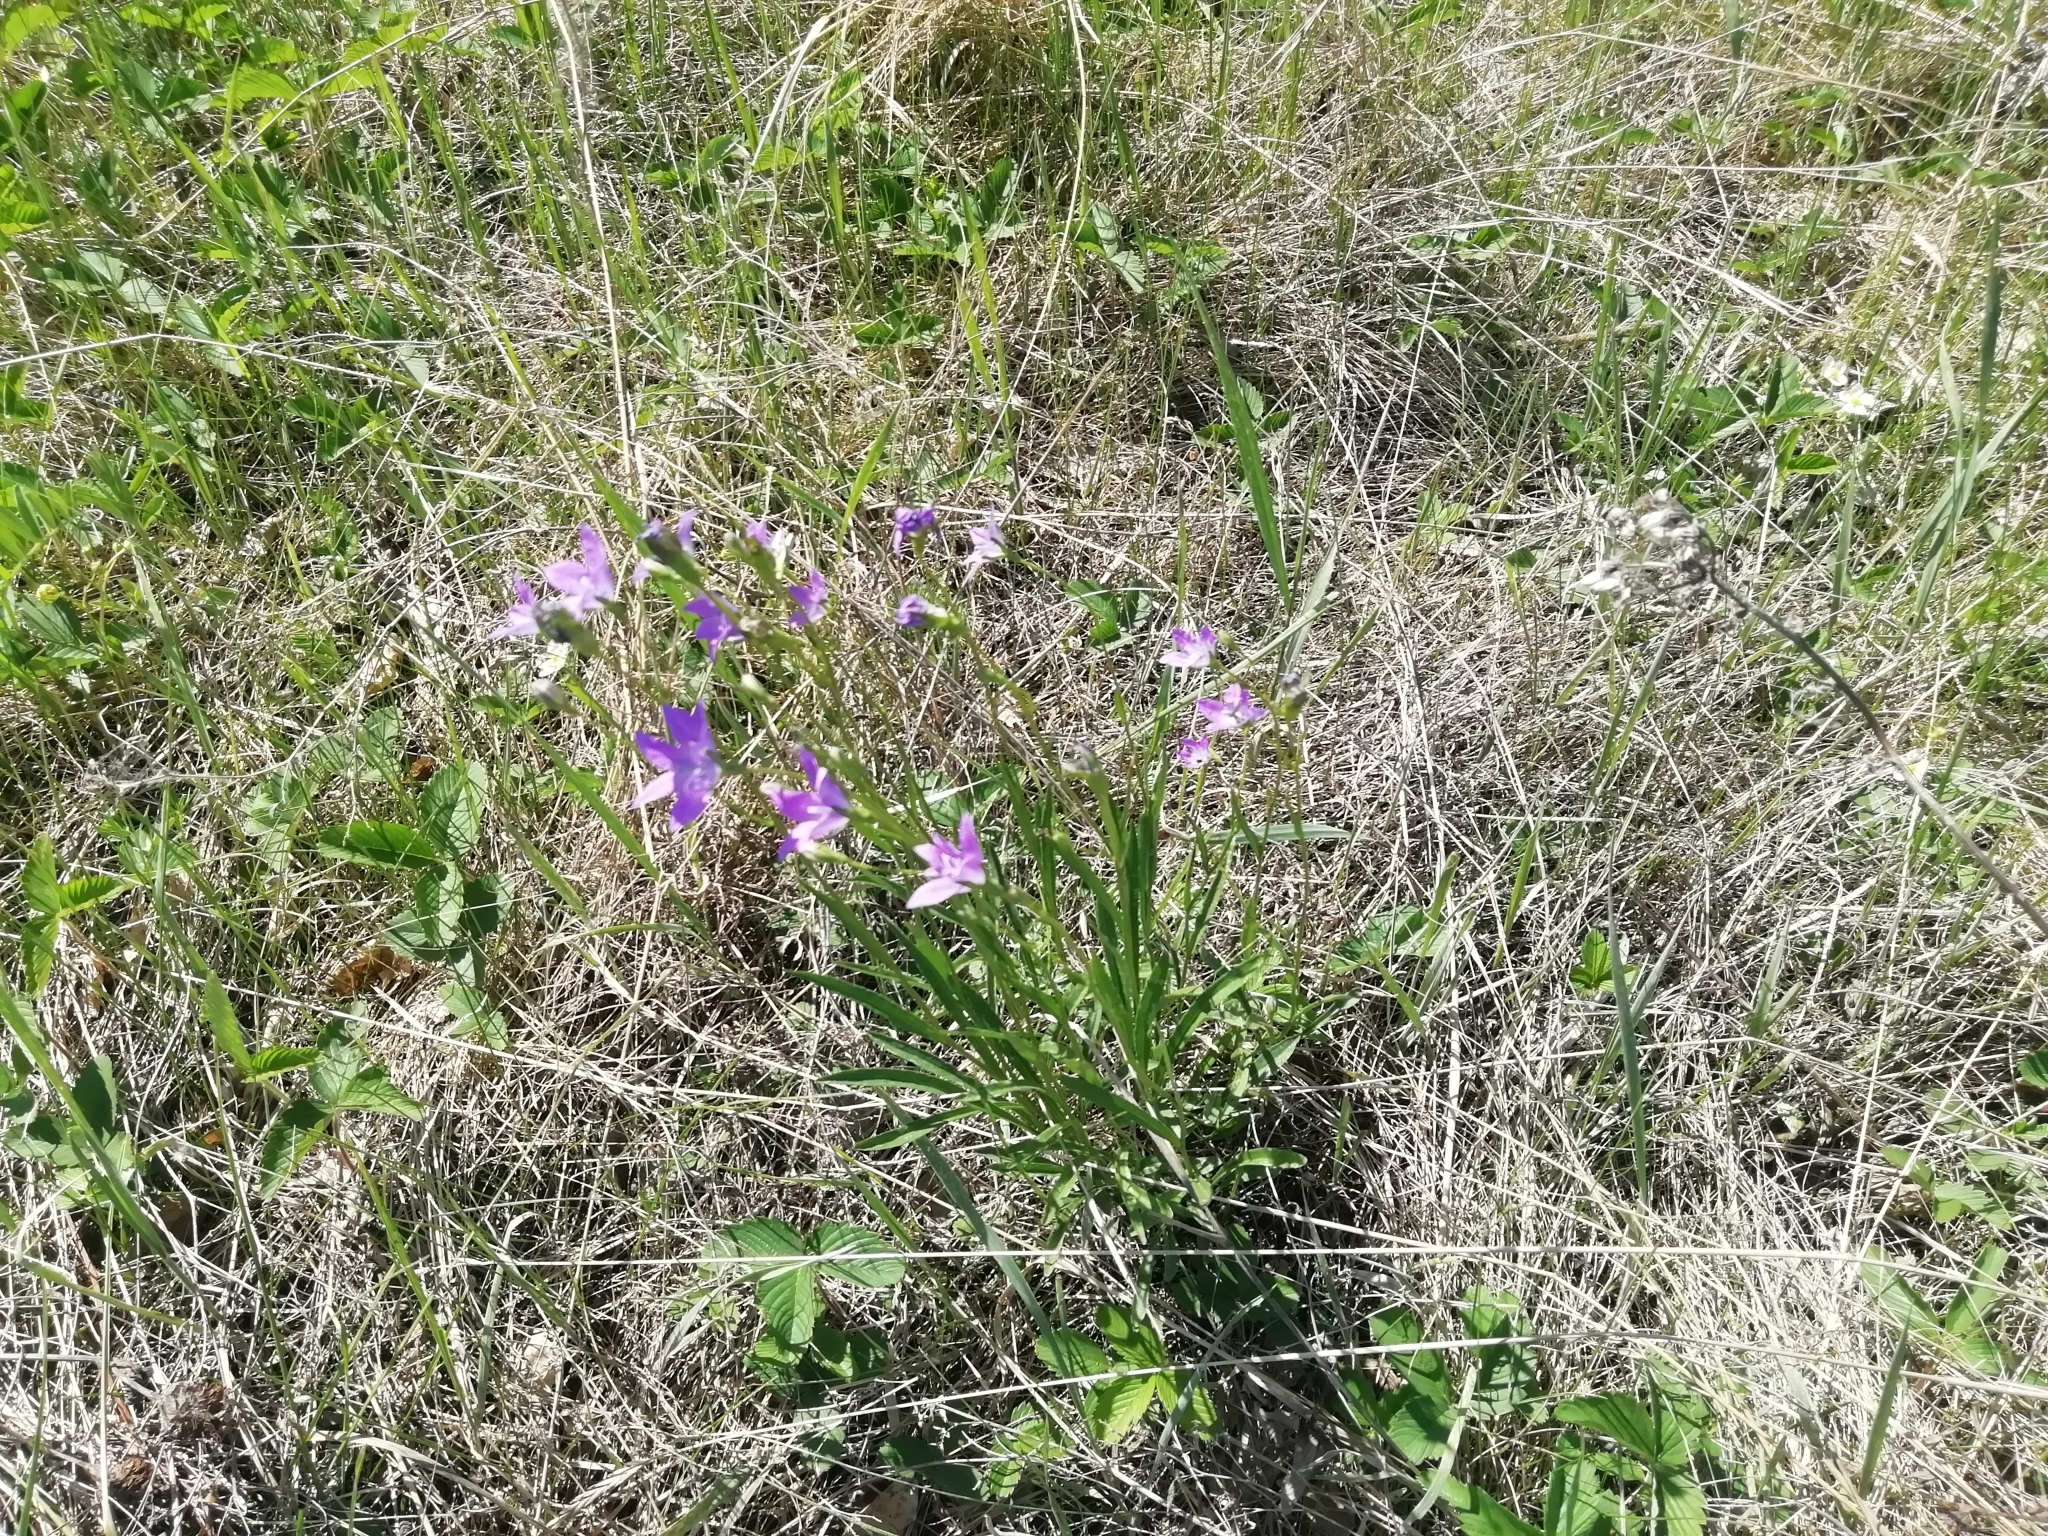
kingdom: Plantae
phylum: Tracheophyta
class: Magnoliopsida
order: Asterales
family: Campanulaceae
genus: Campanula
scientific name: Campanula stevenii
